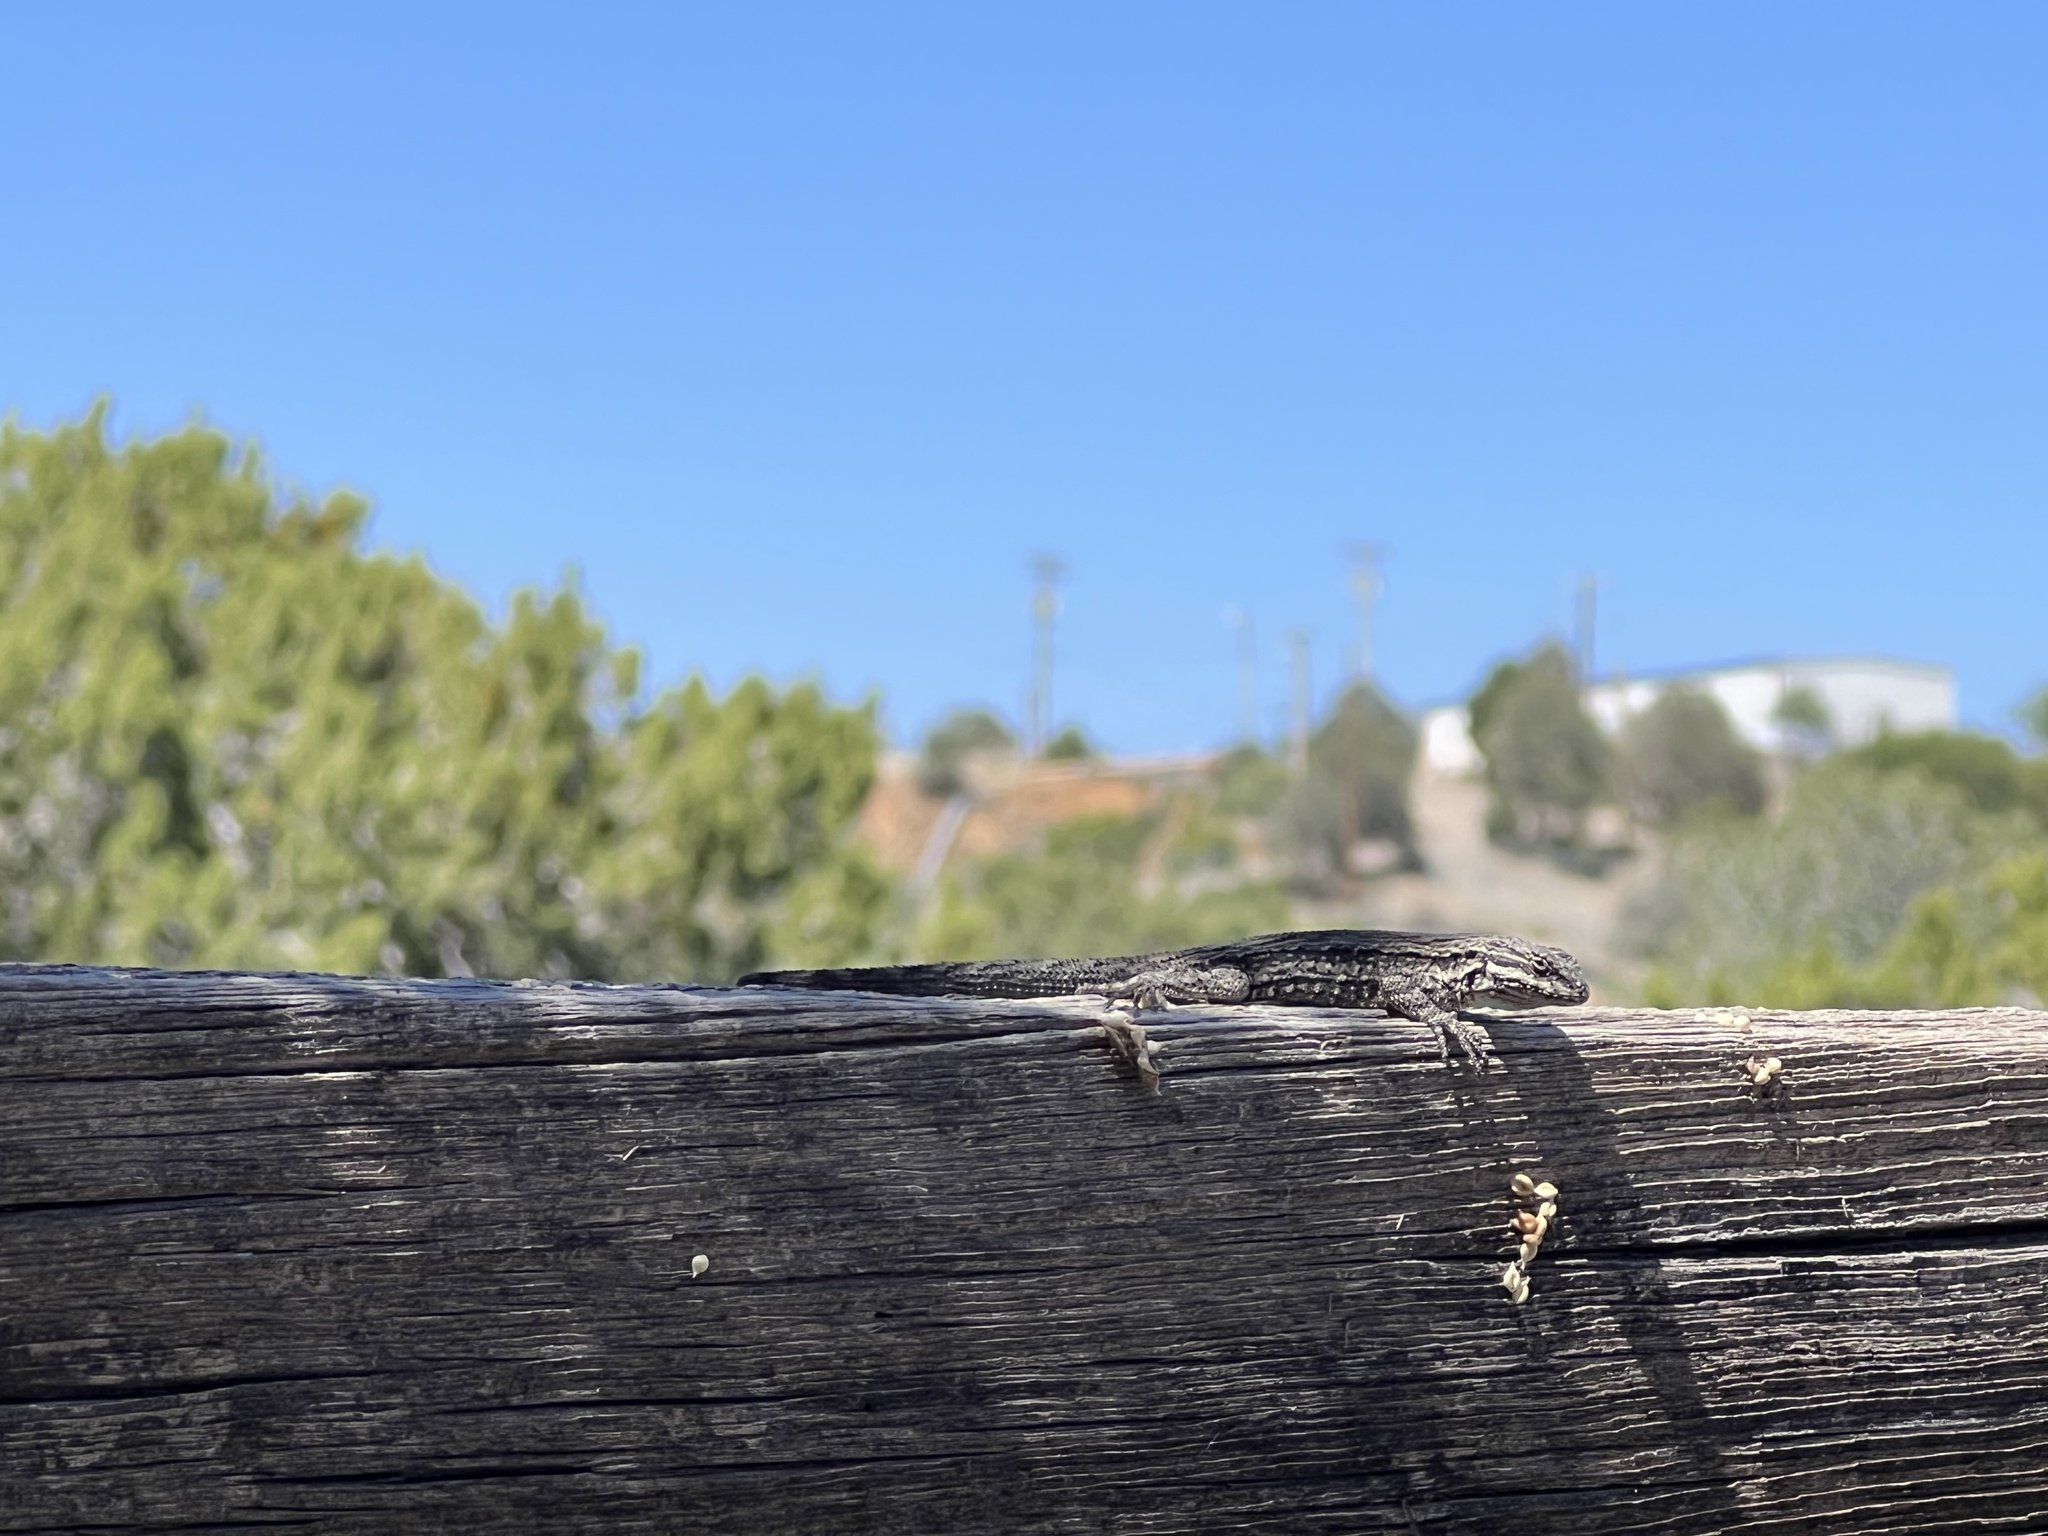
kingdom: Animalia
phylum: Chordata
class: Squamata
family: Phrynosomatidae
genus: Urosaurus
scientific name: Urosaurus ornatus
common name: Ornate tree lizard
